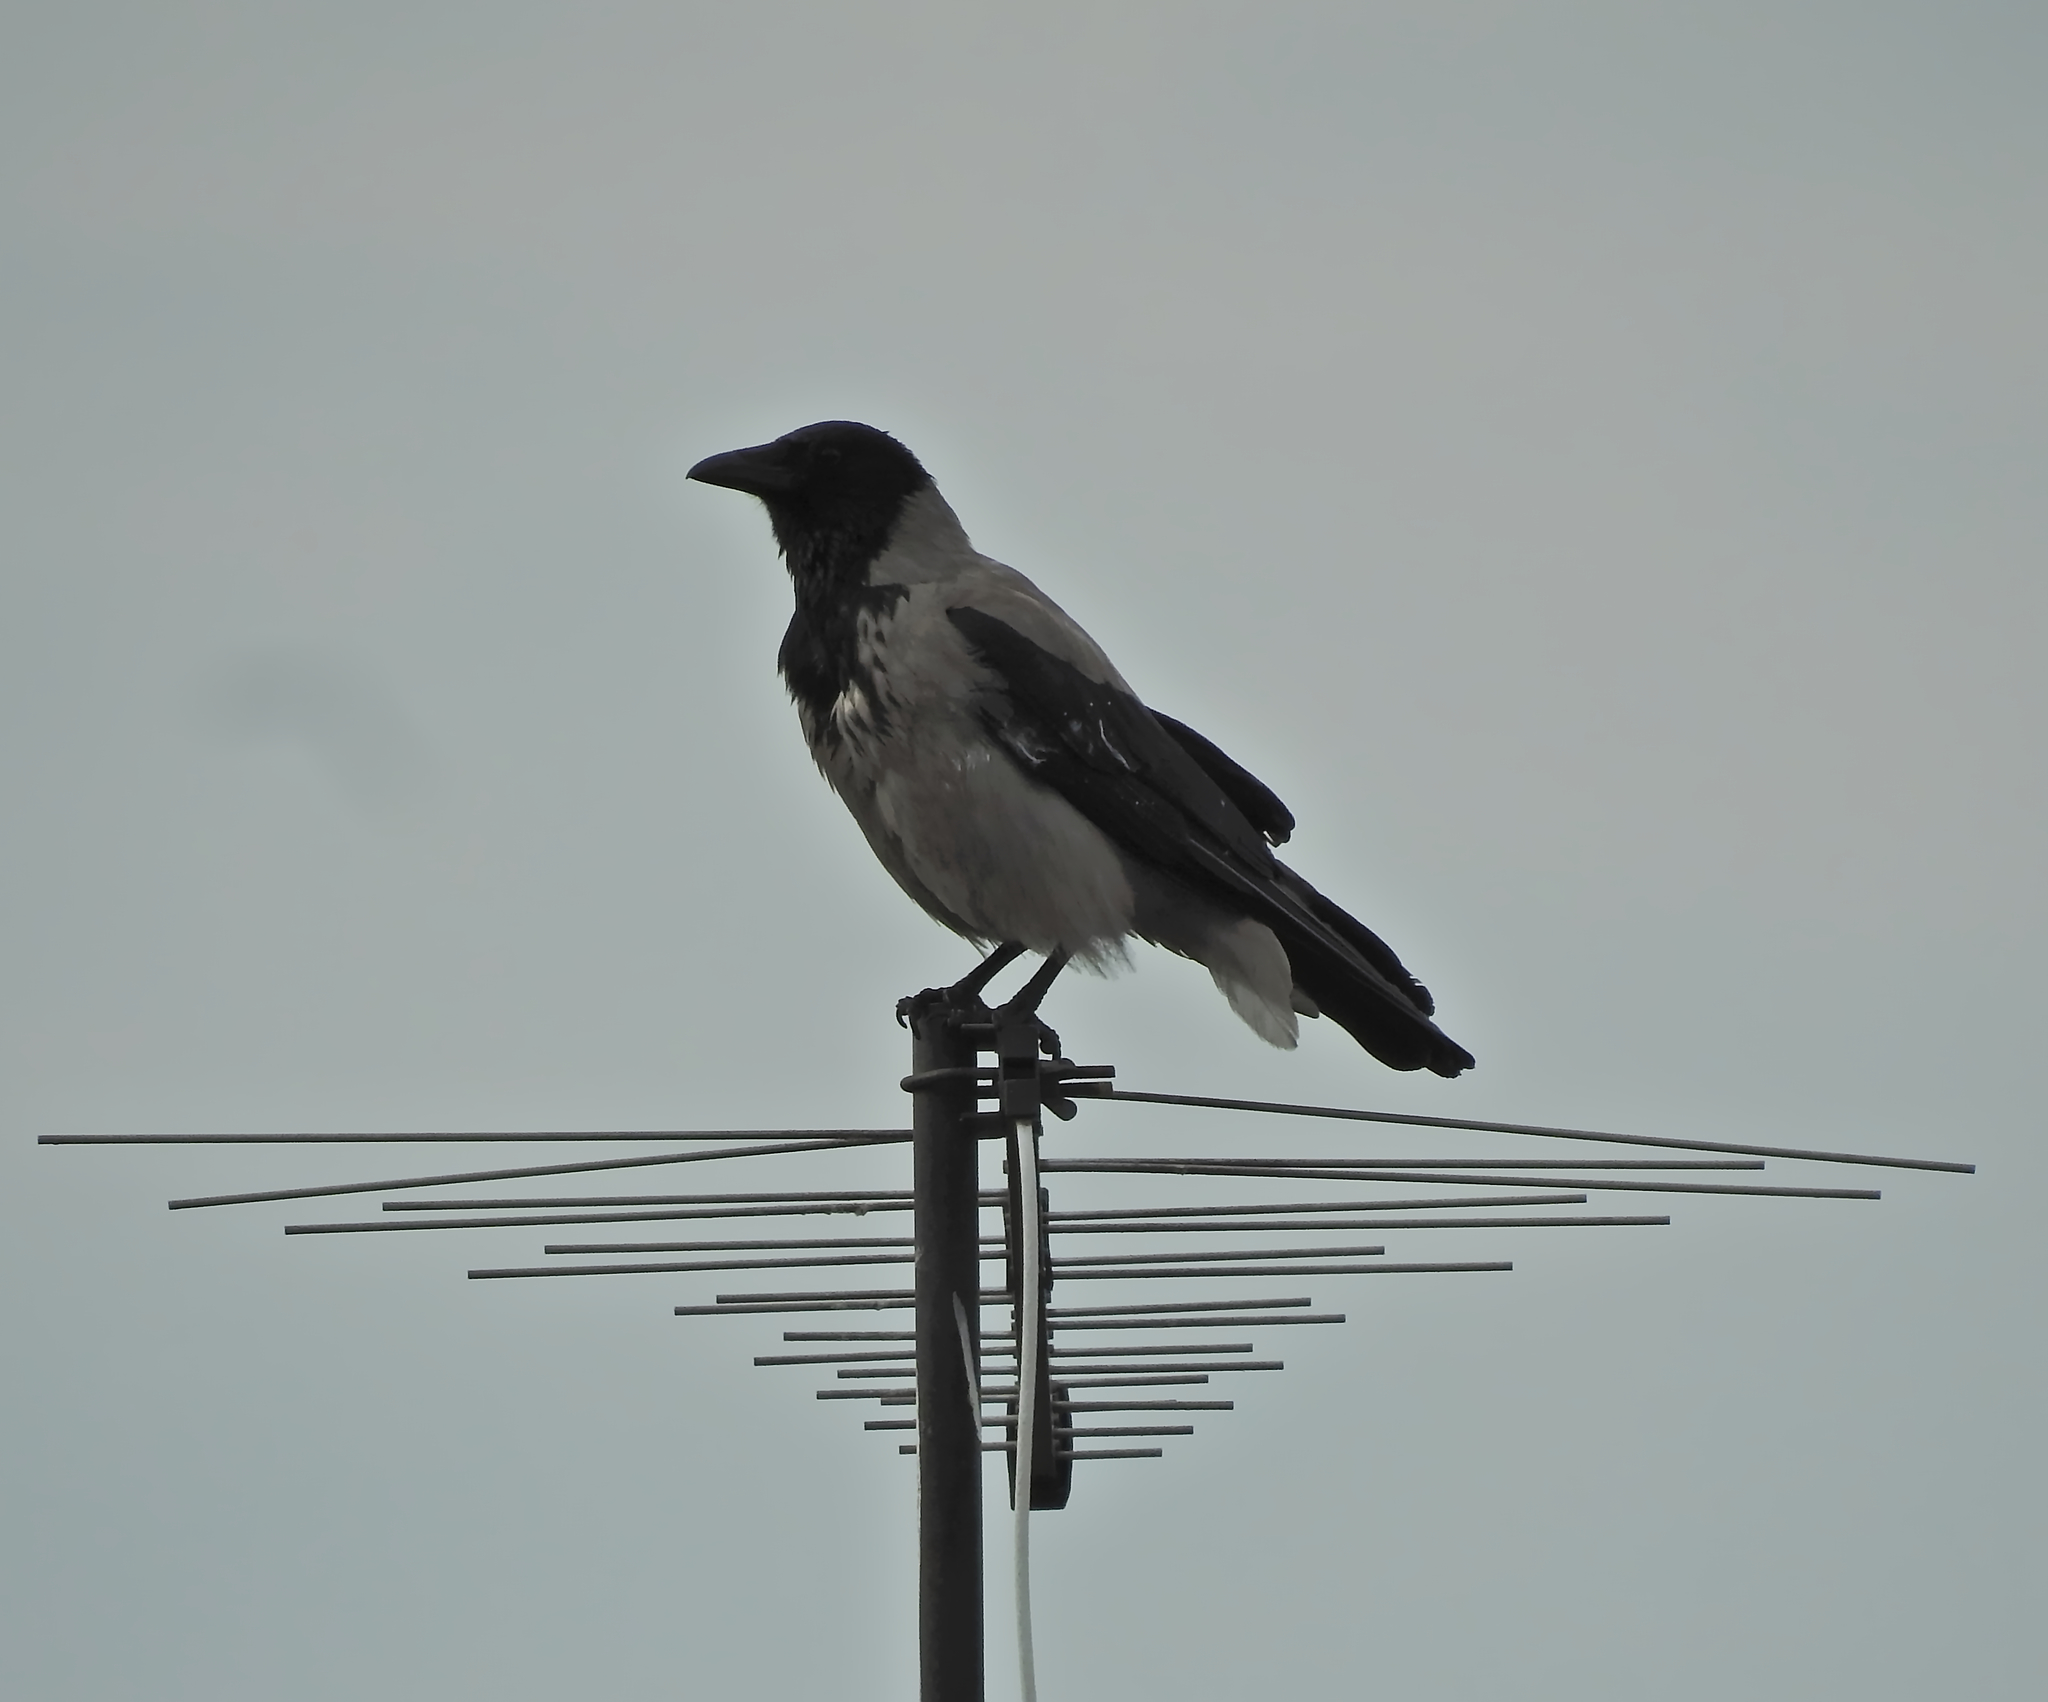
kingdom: Animalia
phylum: Chordata
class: Aves
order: Passeriformes
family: Corvidae
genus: Corvus
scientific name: Corvus cornix
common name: Hooded crow
